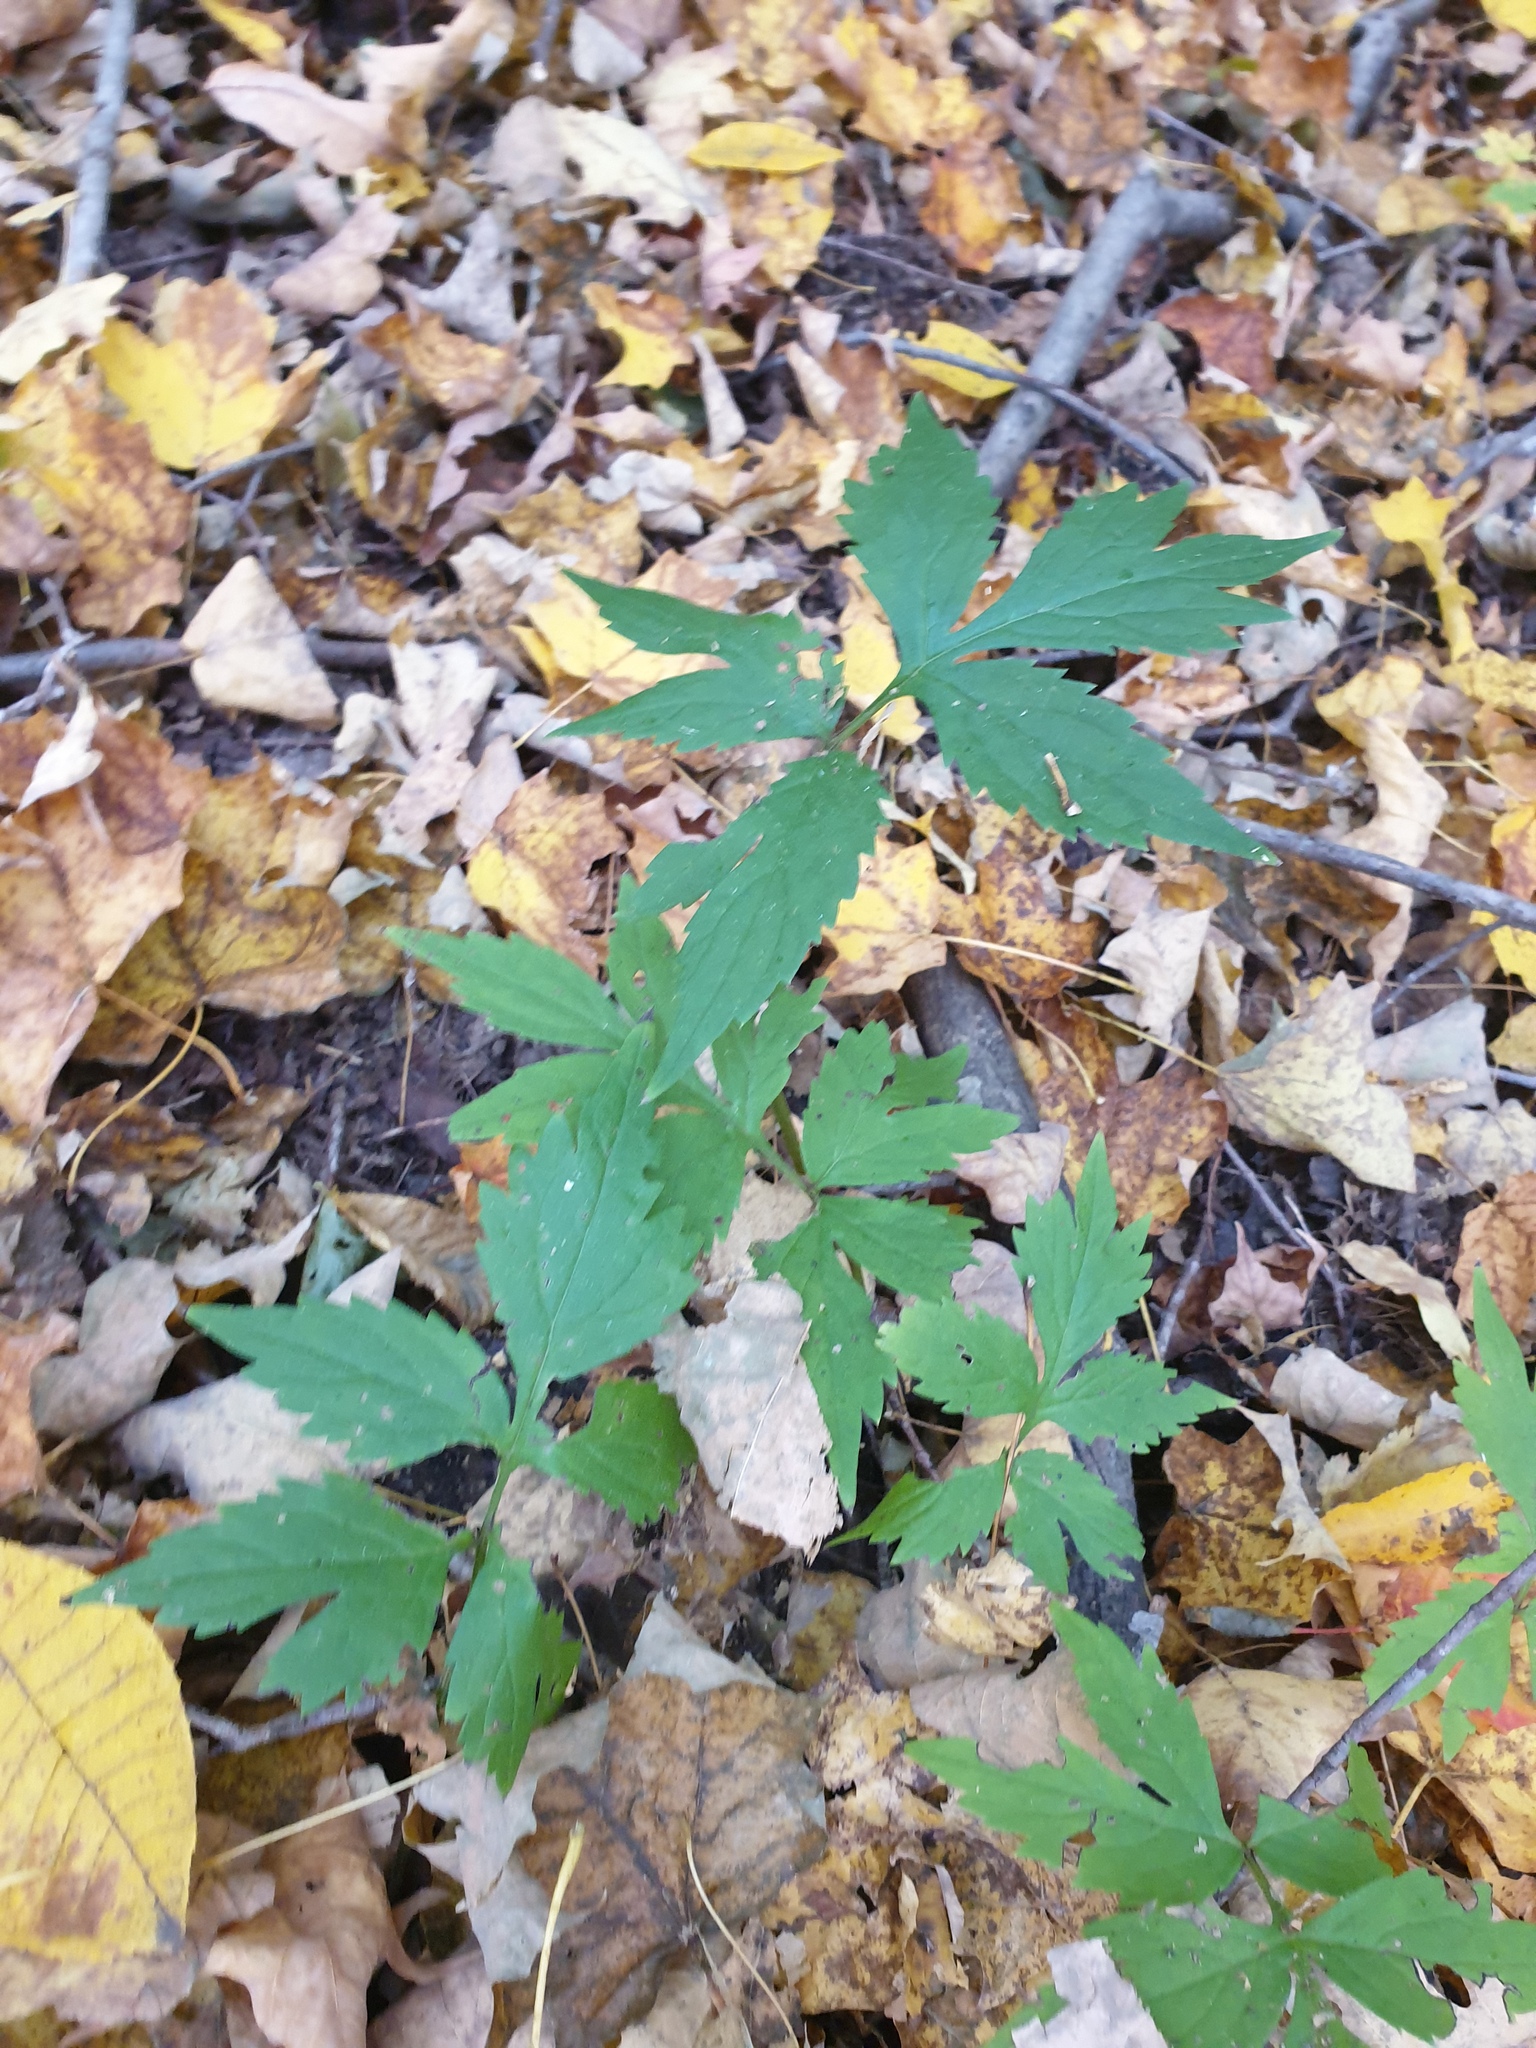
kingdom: Plantae
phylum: Tracheophyta
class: Magnoliopsida
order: Boraginales
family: Hydrophyllaceae
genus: Hydrophyllum
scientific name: Hydrophyllum virginianum
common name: Virginia waterleaf
